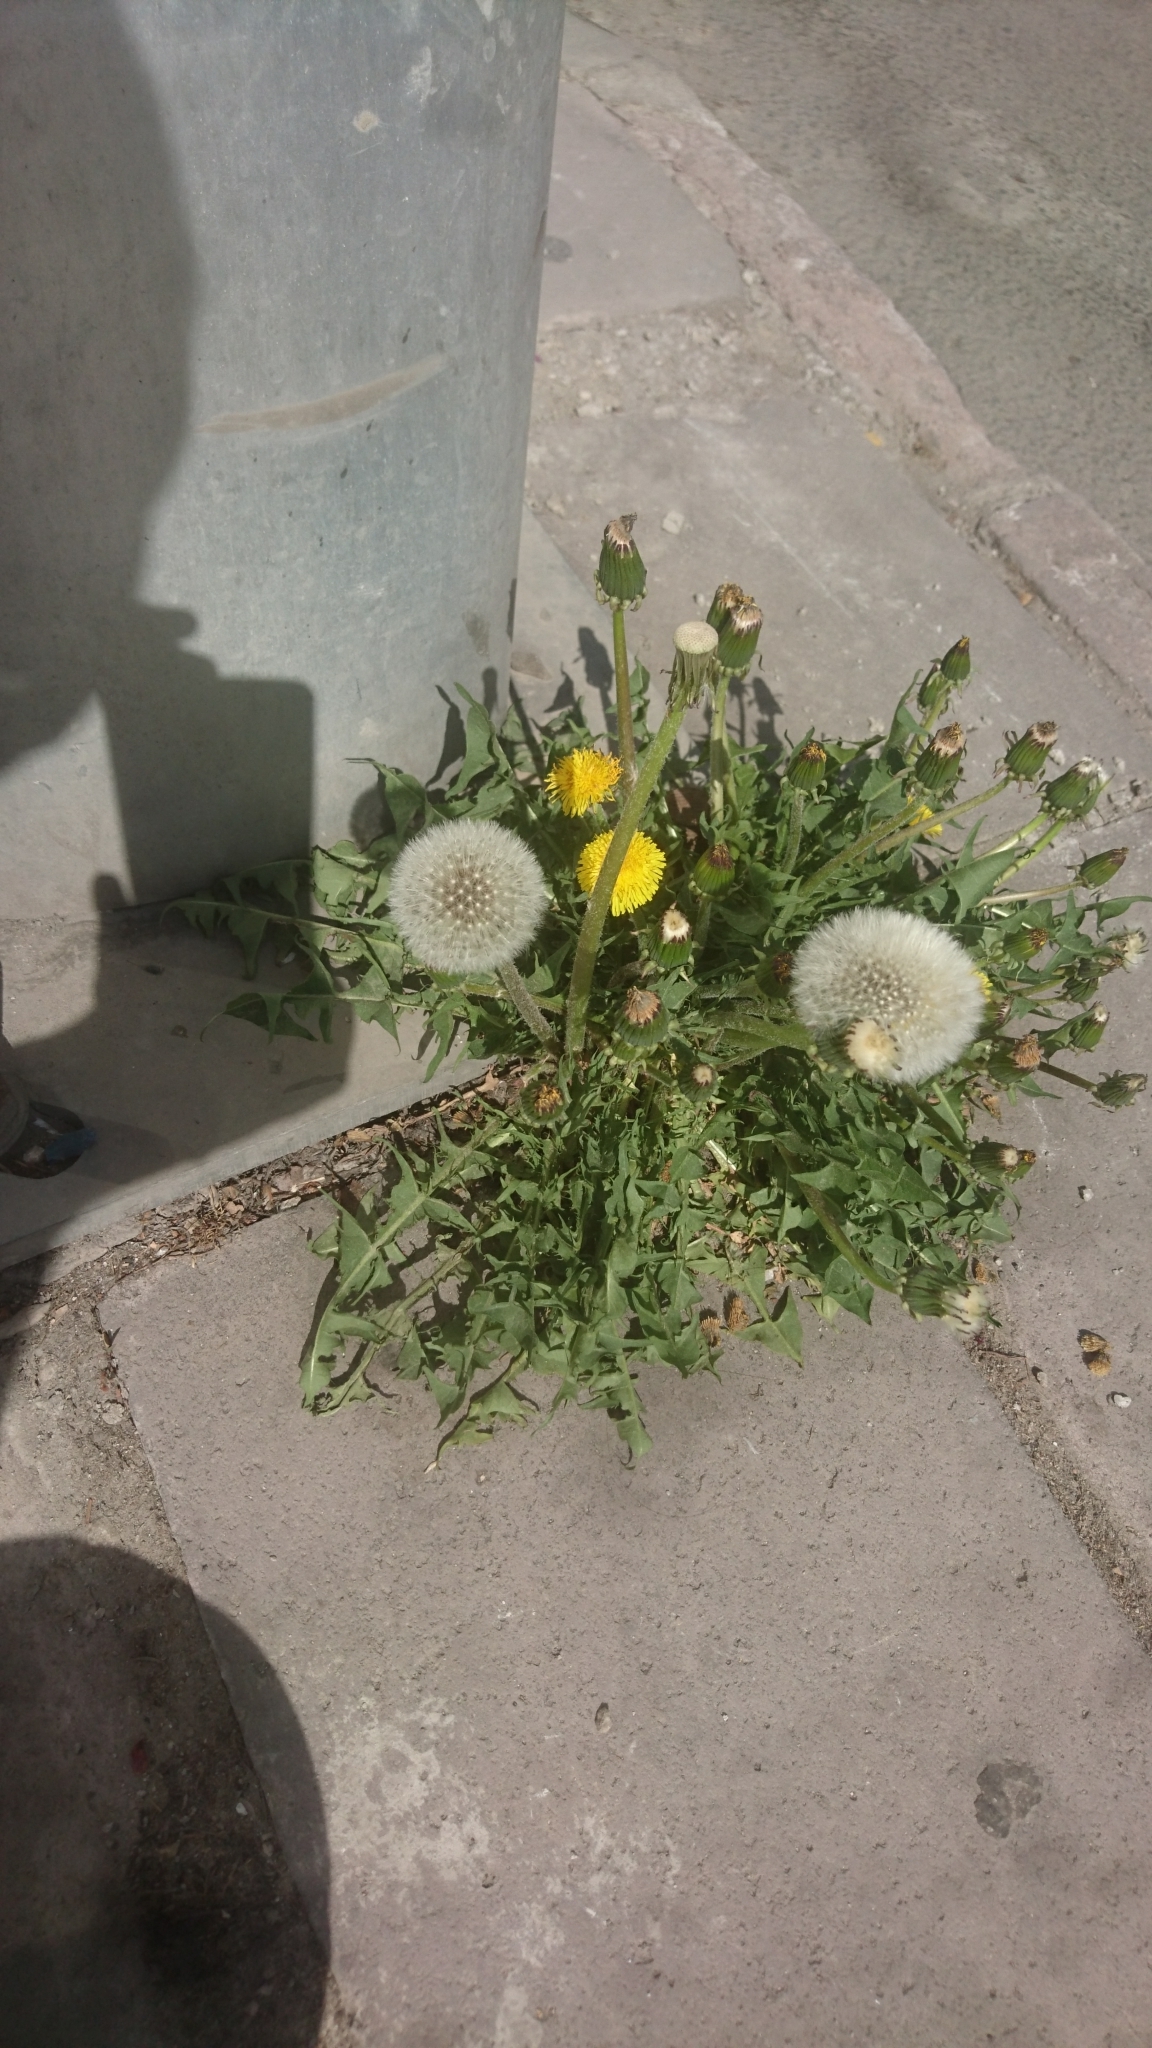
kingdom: Plantae
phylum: Tracheophyta
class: Magnoliopsida
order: Asterales
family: Asteraceae
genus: Taraxacum
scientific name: Taraxacum officinale
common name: Common dandelion
